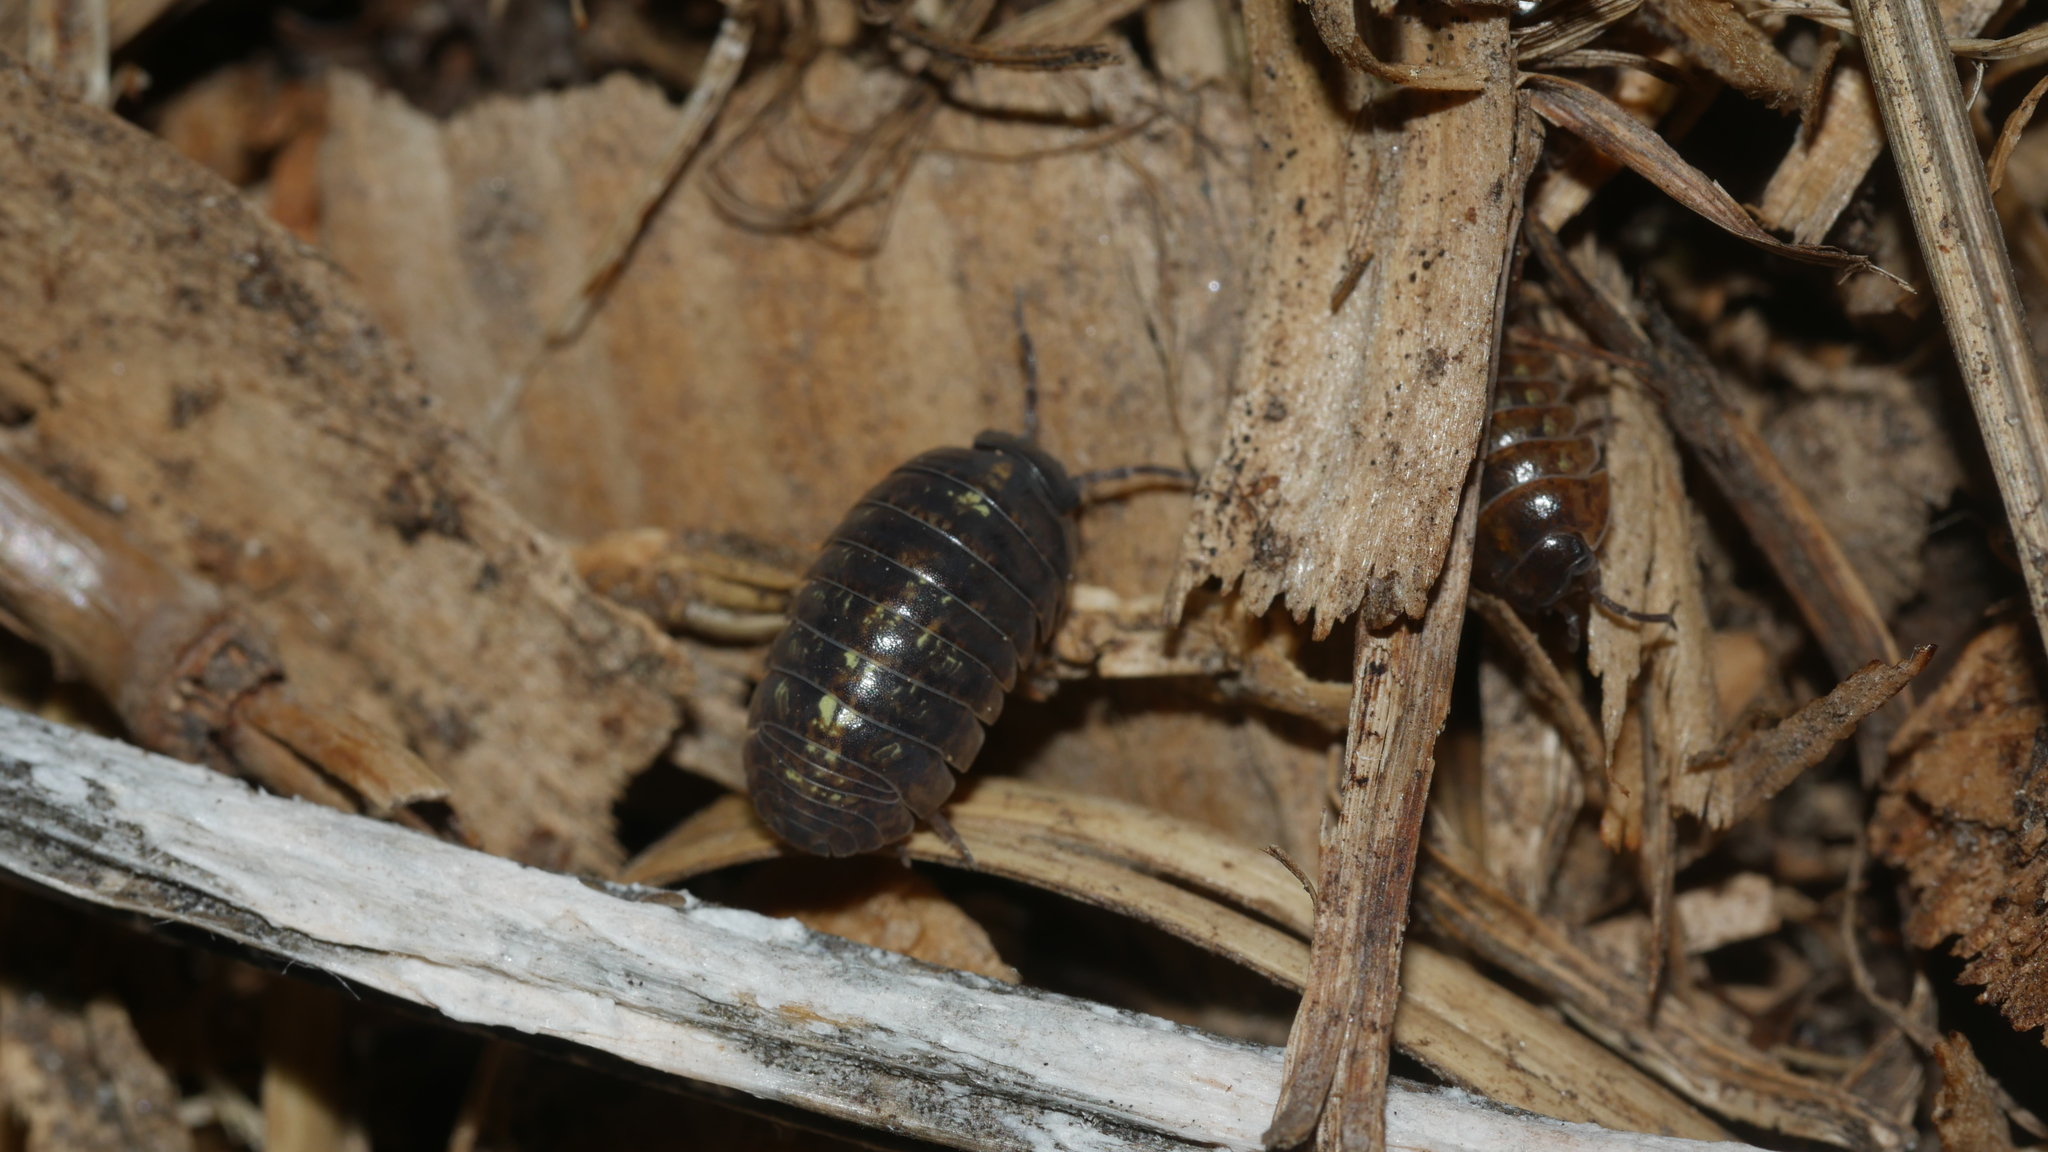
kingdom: Animalia
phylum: Arthropoda
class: Malacostraca
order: Isopoda
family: Armadillidiidae
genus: Armadillidium
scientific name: Armadillidium vulgare
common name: Common pill woodlouse
